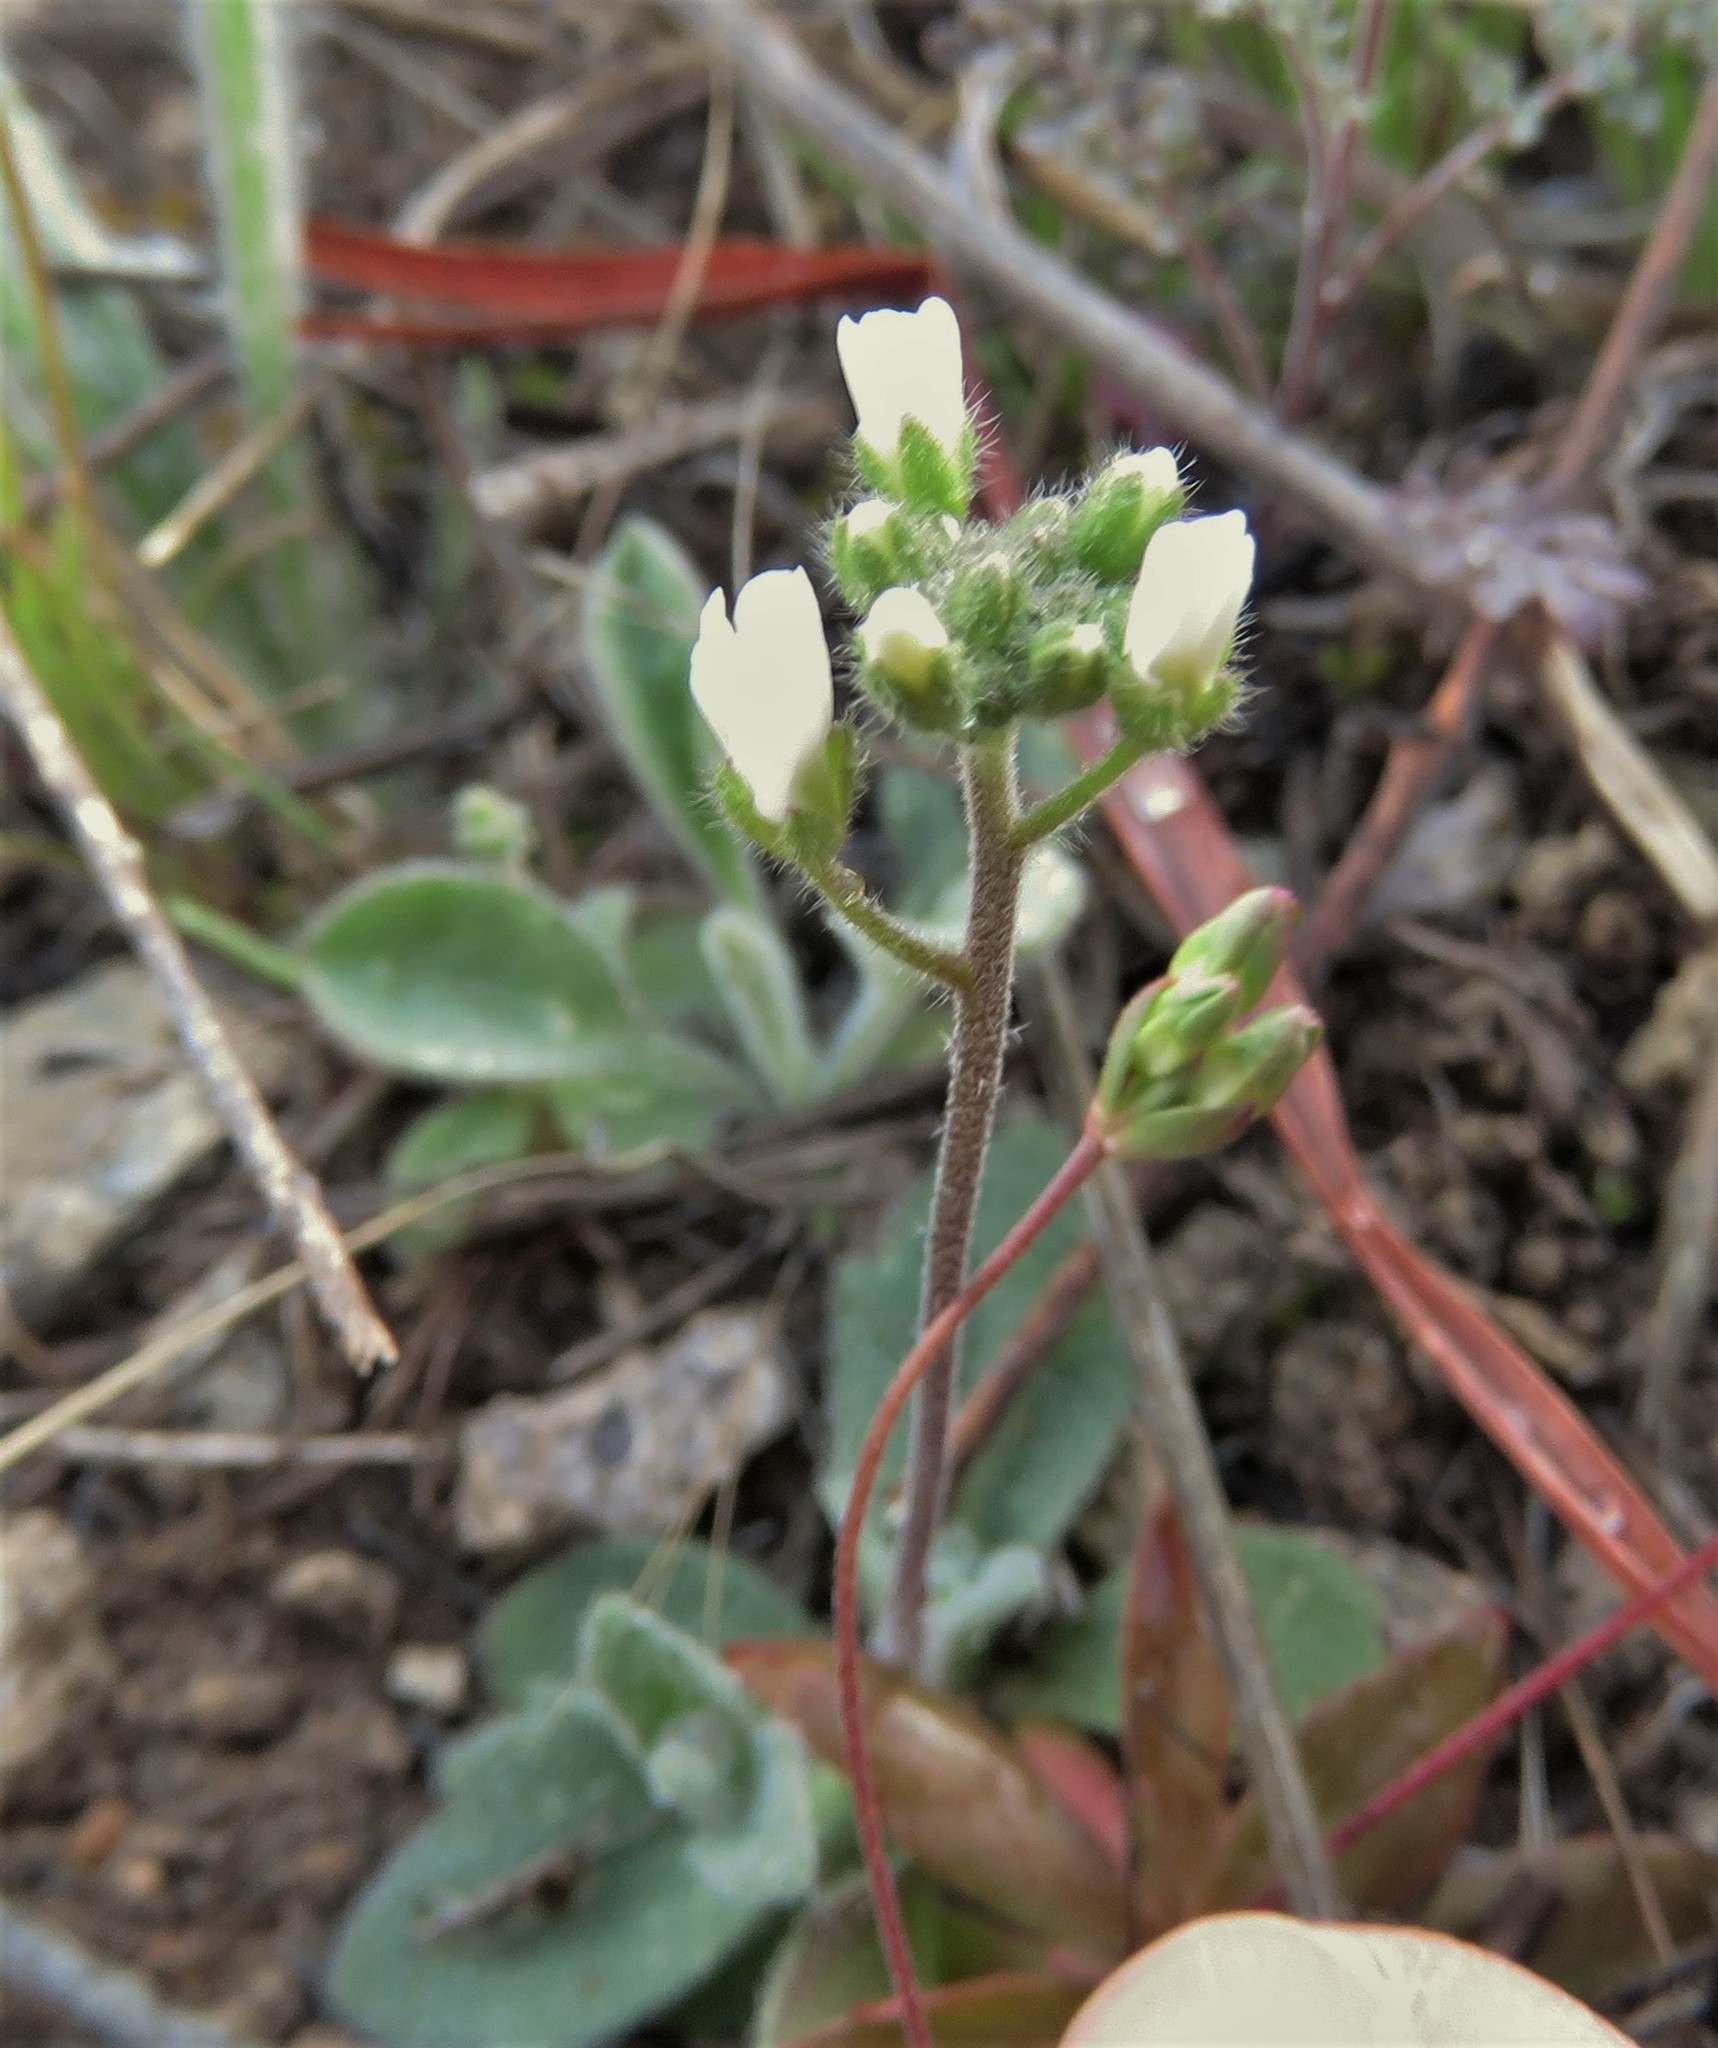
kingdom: Plantae
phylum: Tracheophyta
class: Magnoliopsida
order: Brassicales
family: Brassicaceae
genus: Tomostima
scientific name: Tomostima cuneifolia
